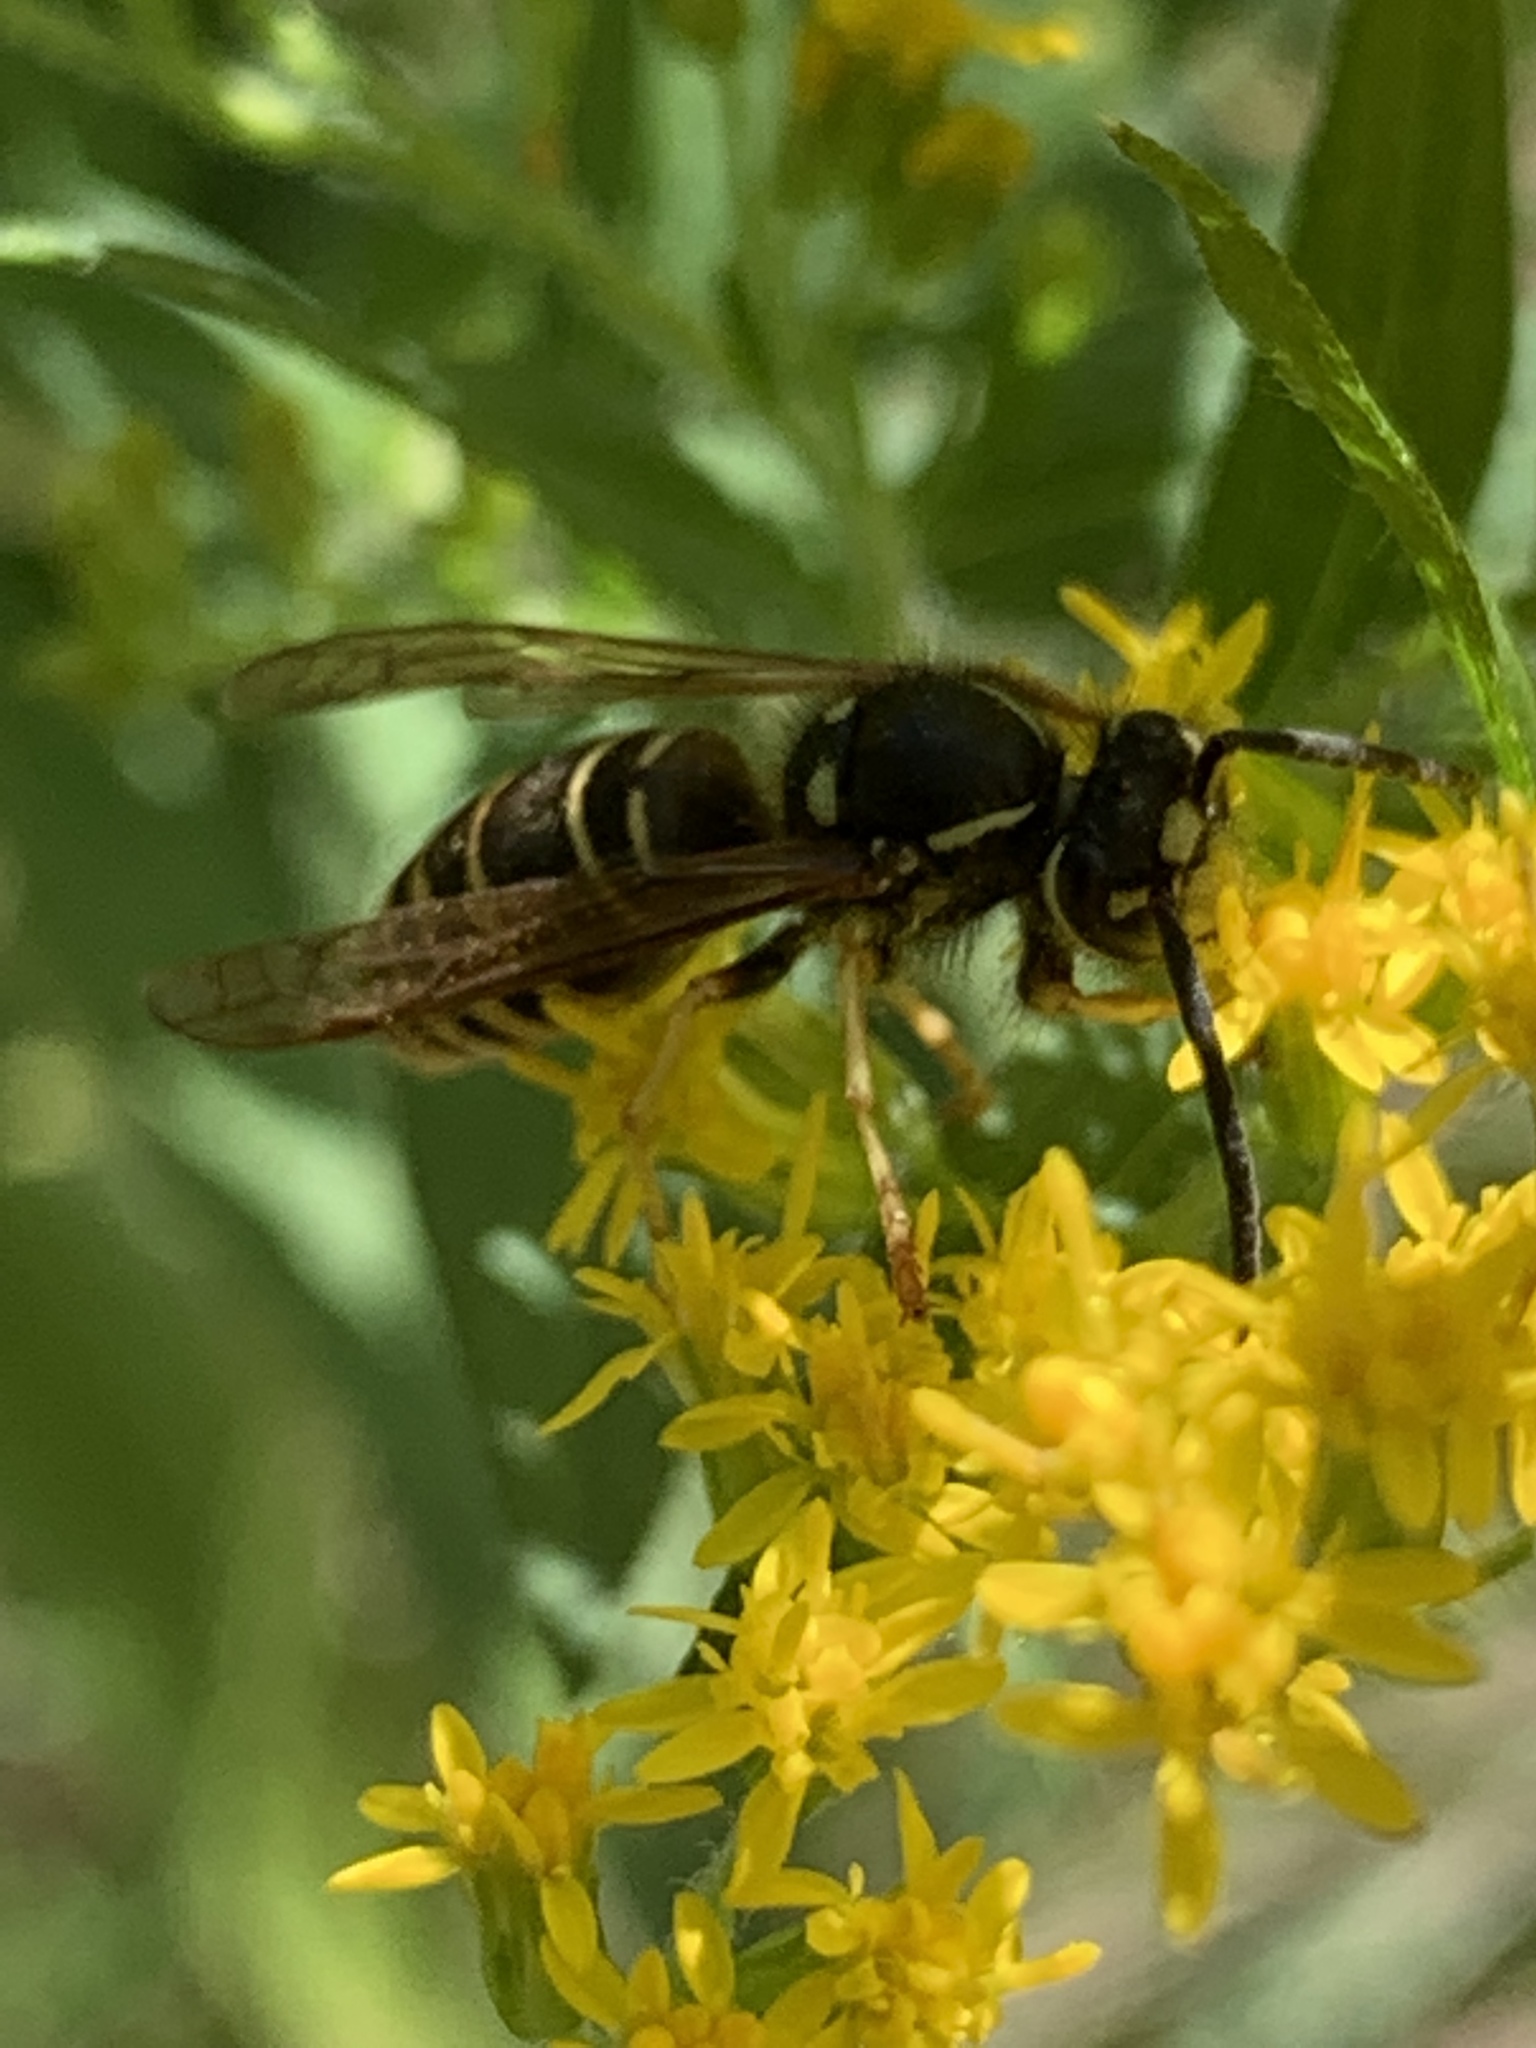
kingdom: Animalia
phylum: Arthropoda
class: Insecta
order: Hymenoptera
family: Vespidae
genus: Vespula
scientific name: Vespula vidua
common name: Widow yellowjacket
